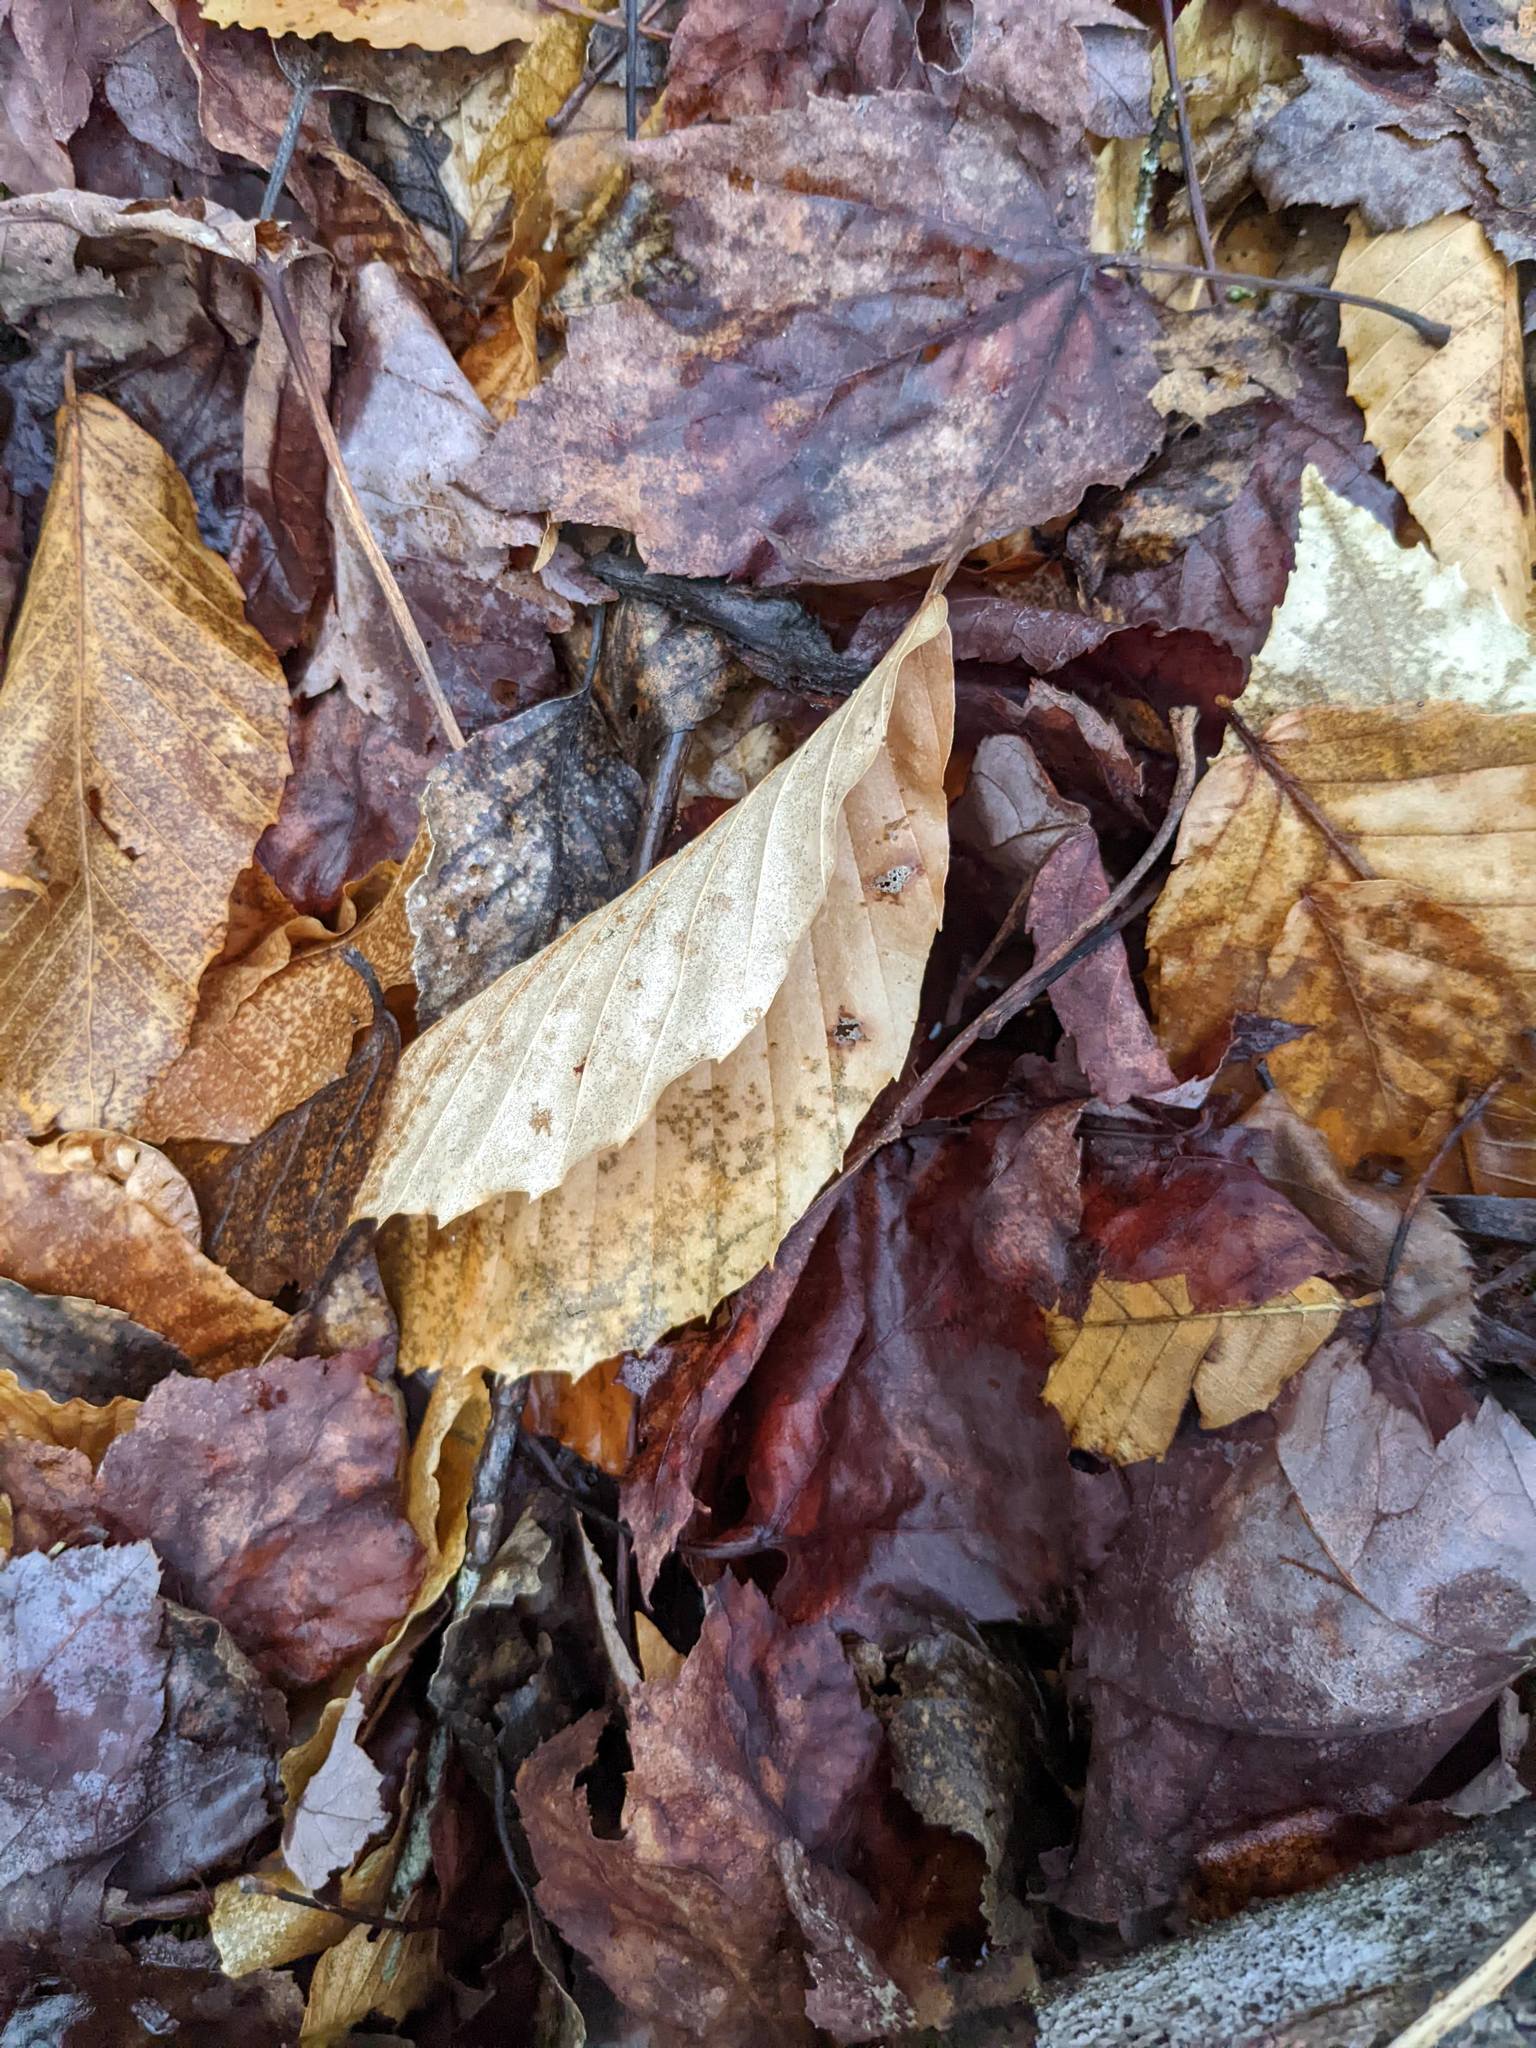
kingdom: Plantae
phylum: Tracheophyta
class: Magnoliopsida
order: Fagales
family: Fagaceae
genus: Fagus
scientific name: Fagus grandifolia
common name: American beech
